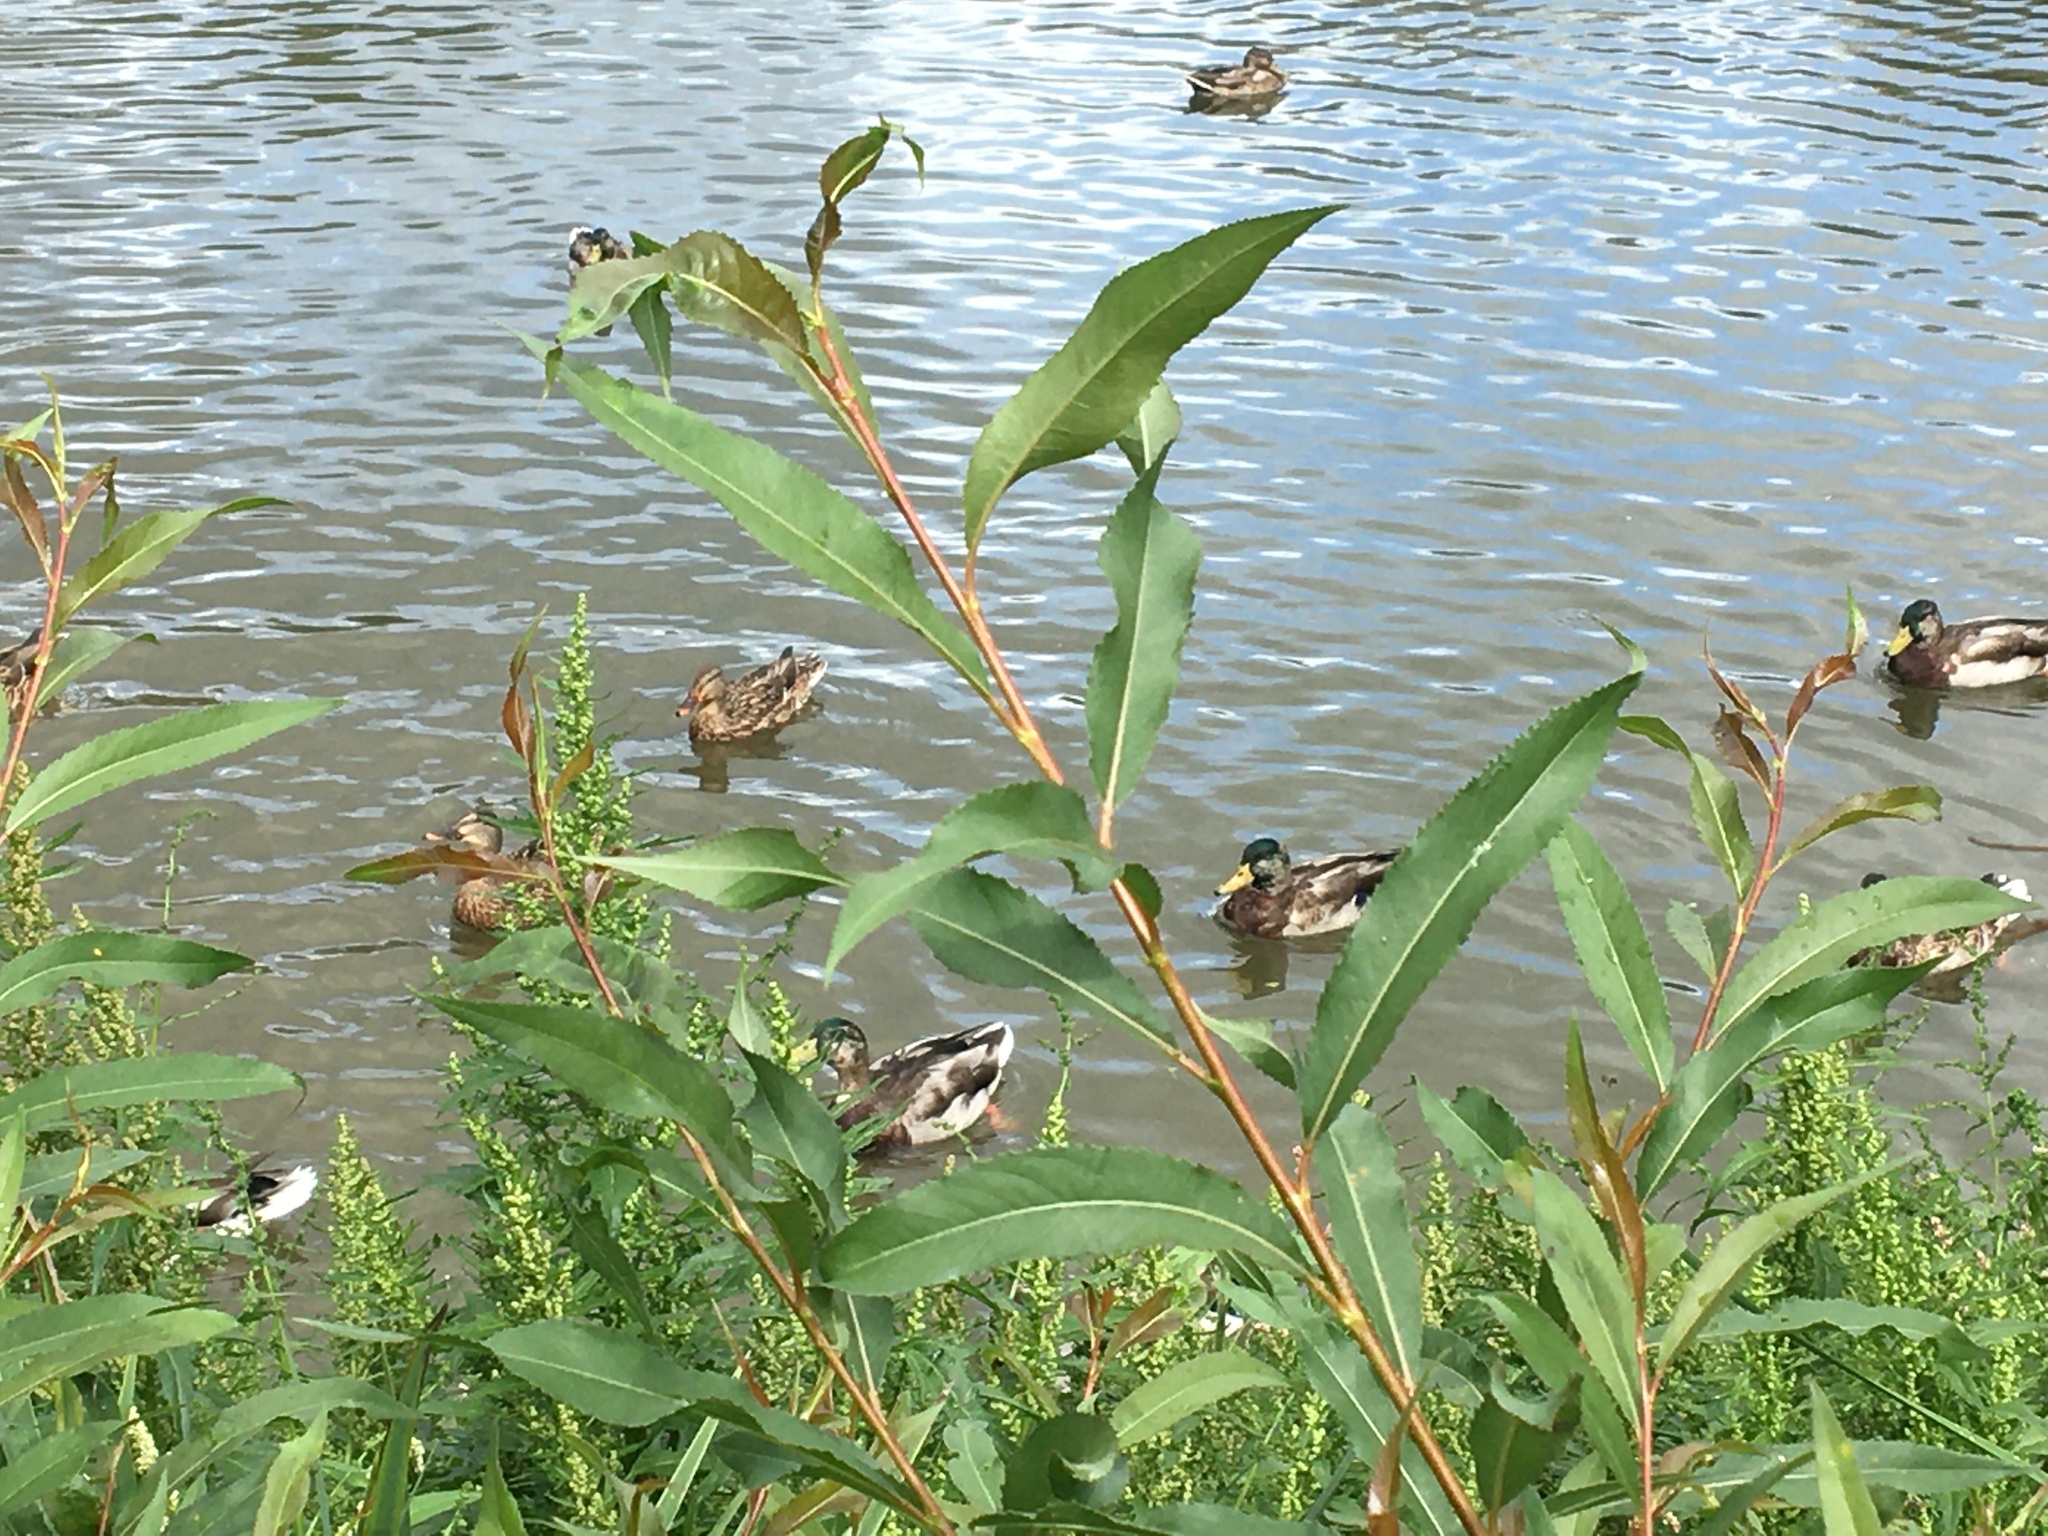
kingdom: Animalia
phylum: Chordata
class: Aves
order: Anseriformes
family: Anatidae
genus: Anas
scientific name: Anas platyrhynchos
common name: Mallard
